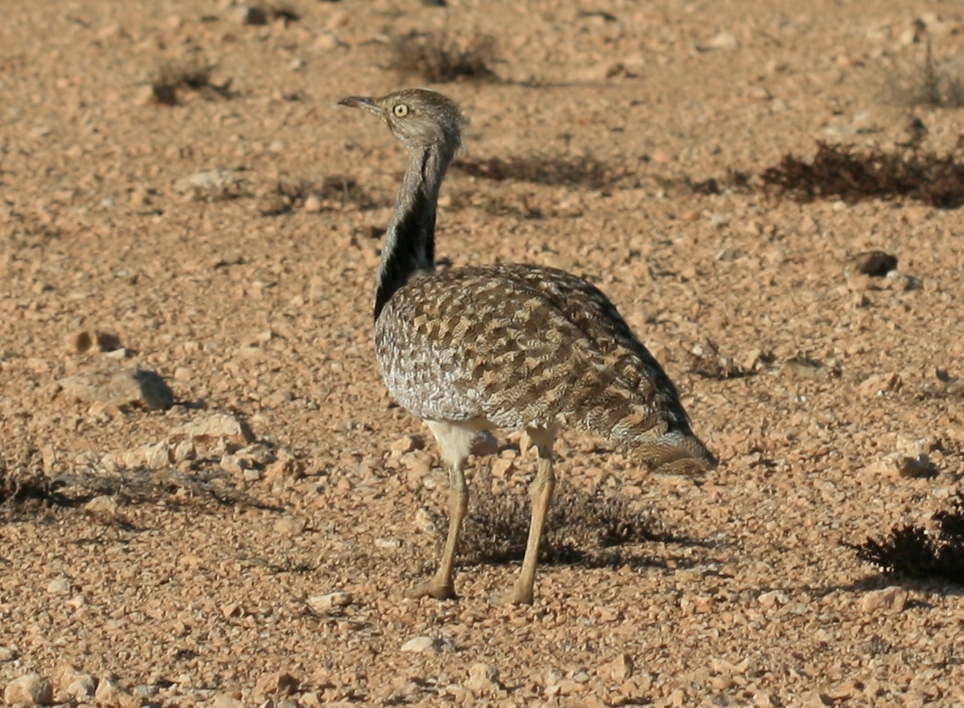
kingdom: Animalia
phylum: Chordata
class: Aves
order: Otidiformes
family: Otididae
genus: Chlamydotis
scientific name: Chlamydotis undulata
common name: Houbara bustard
